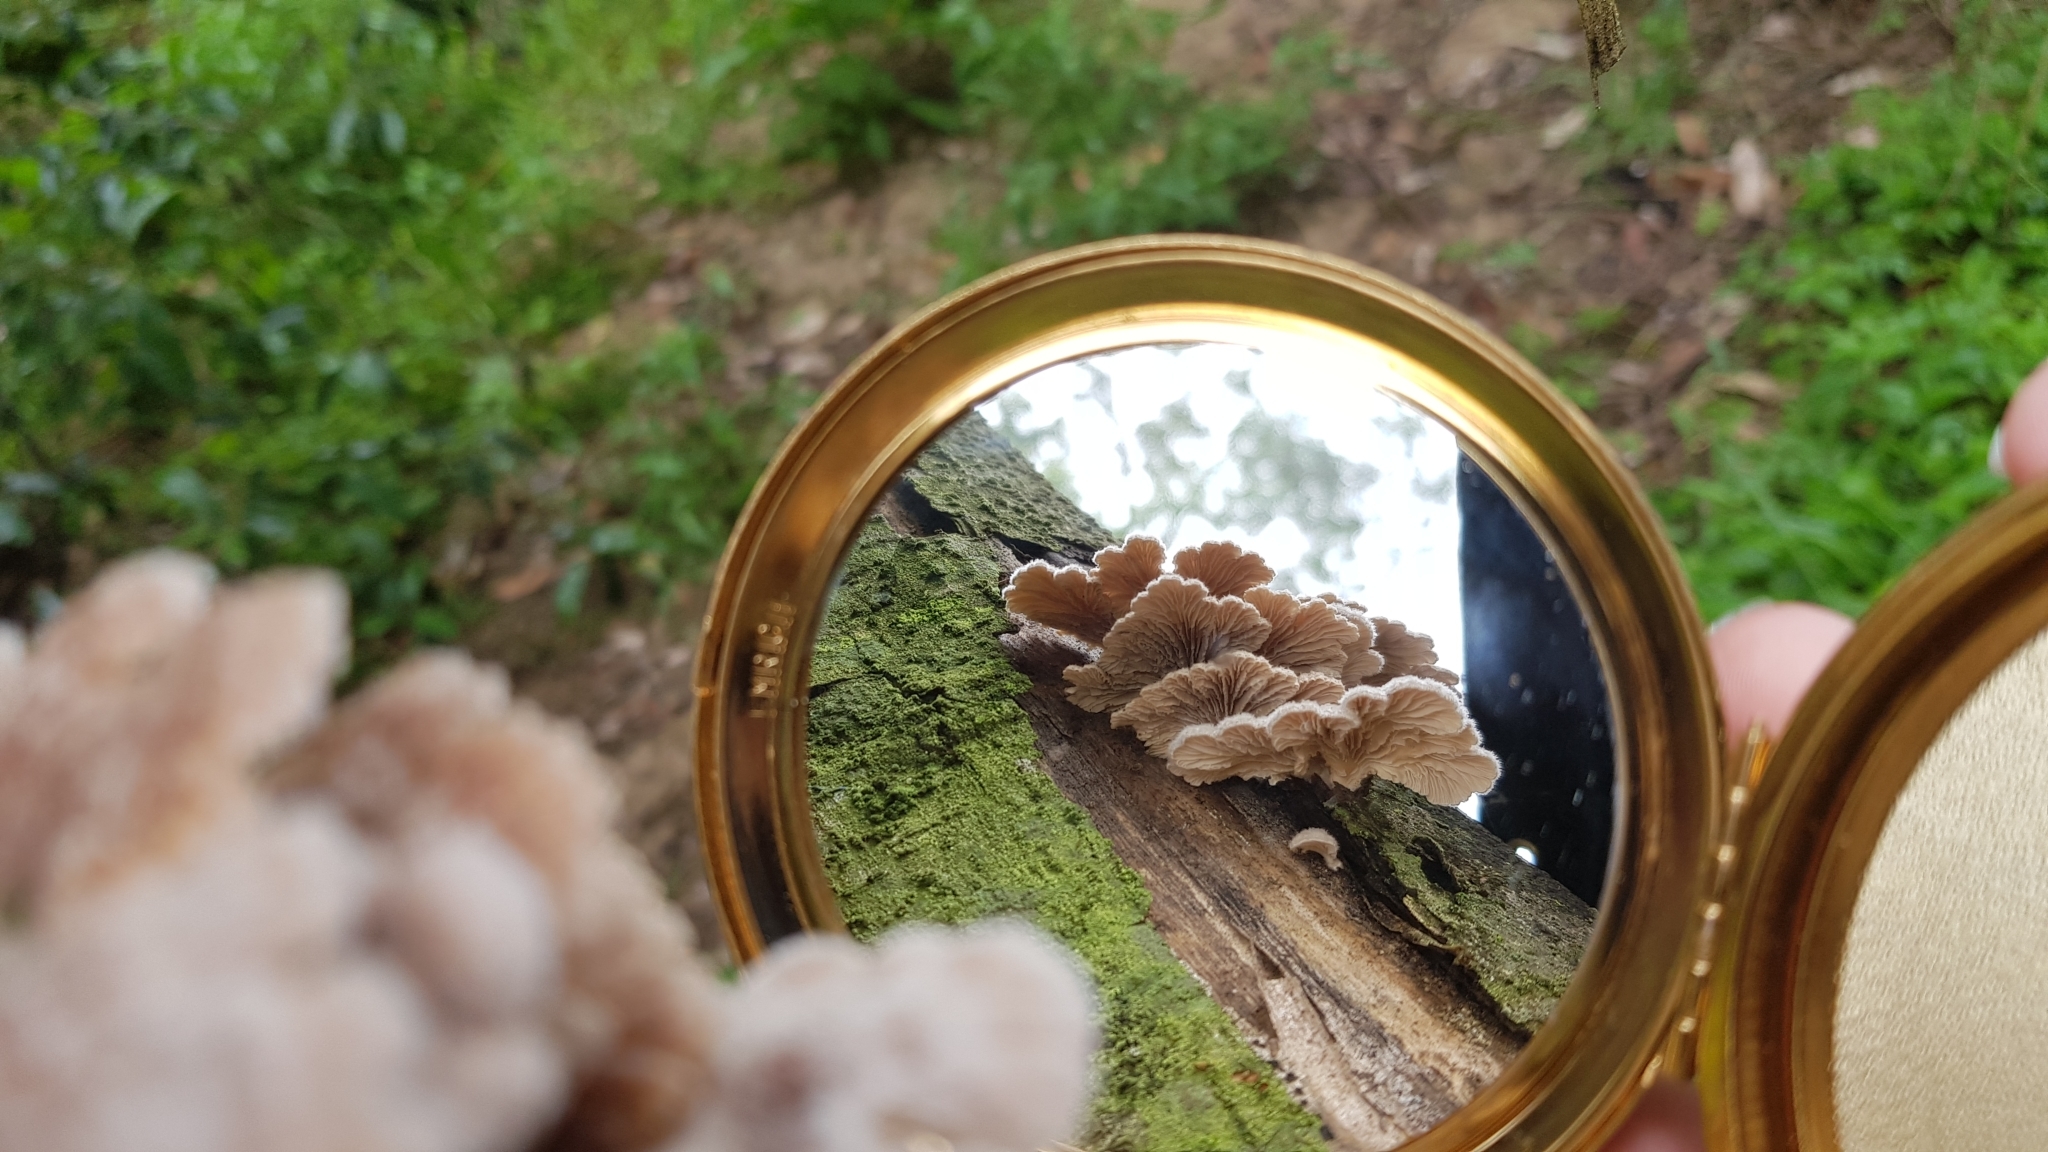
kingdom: Fungi
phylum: Basidiomycota
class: Agaricomycetes
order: Agaricales
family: Schizophyllaceae
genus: Schizophyllum
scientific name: Schizophyllum commune
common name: Common porecrust
